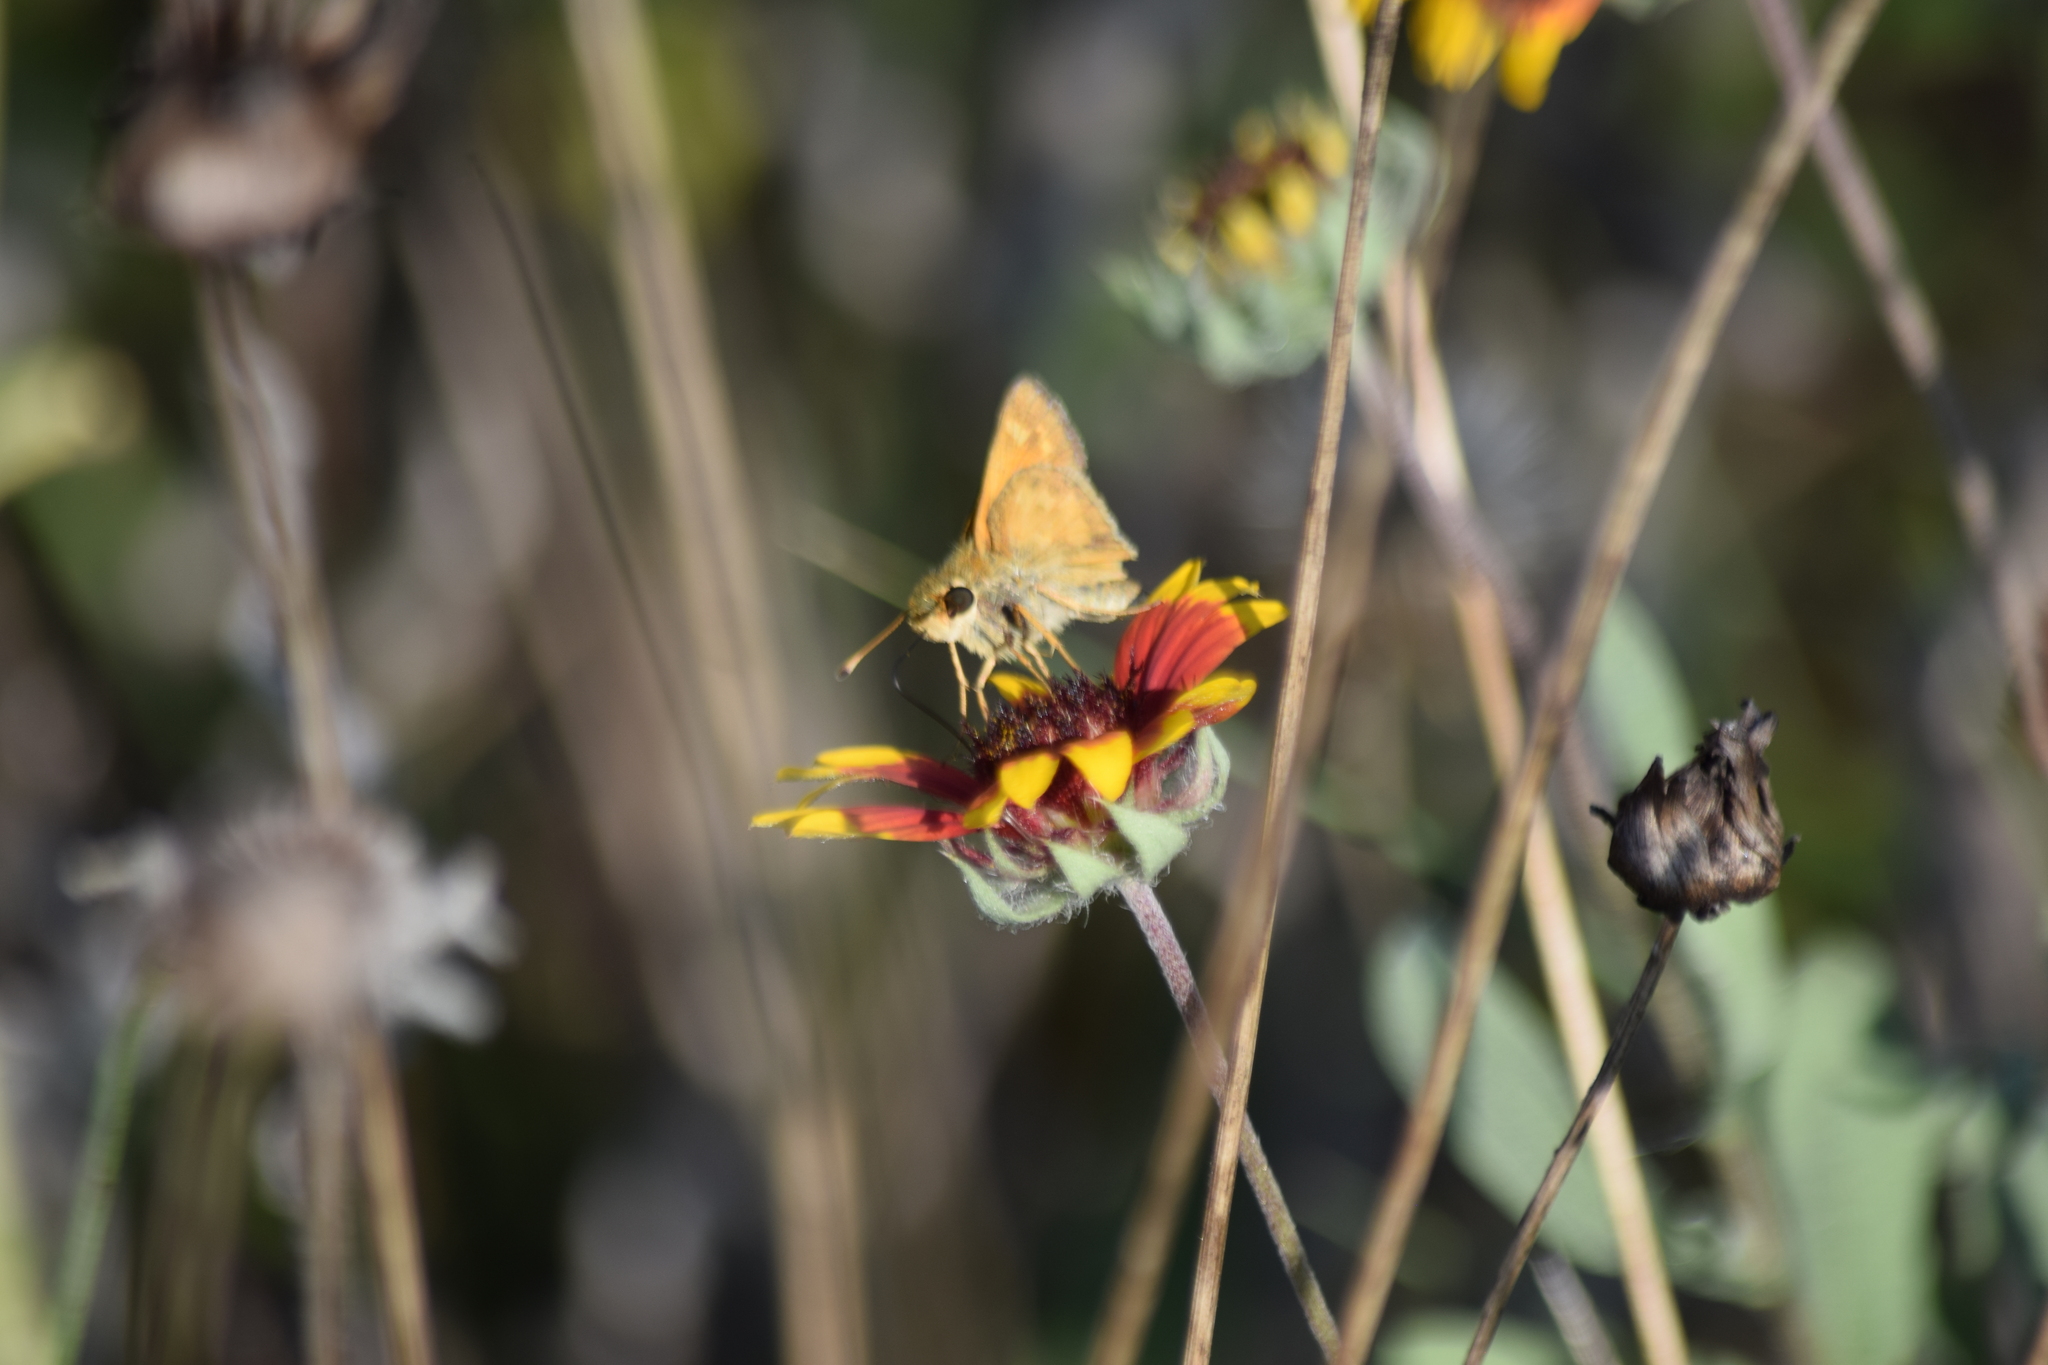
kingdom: Animalia
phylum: Arthropoda
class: Insecta
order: Lepidoptera
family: Hesperiidae
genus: Atalopedes
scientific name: Atalopedes
